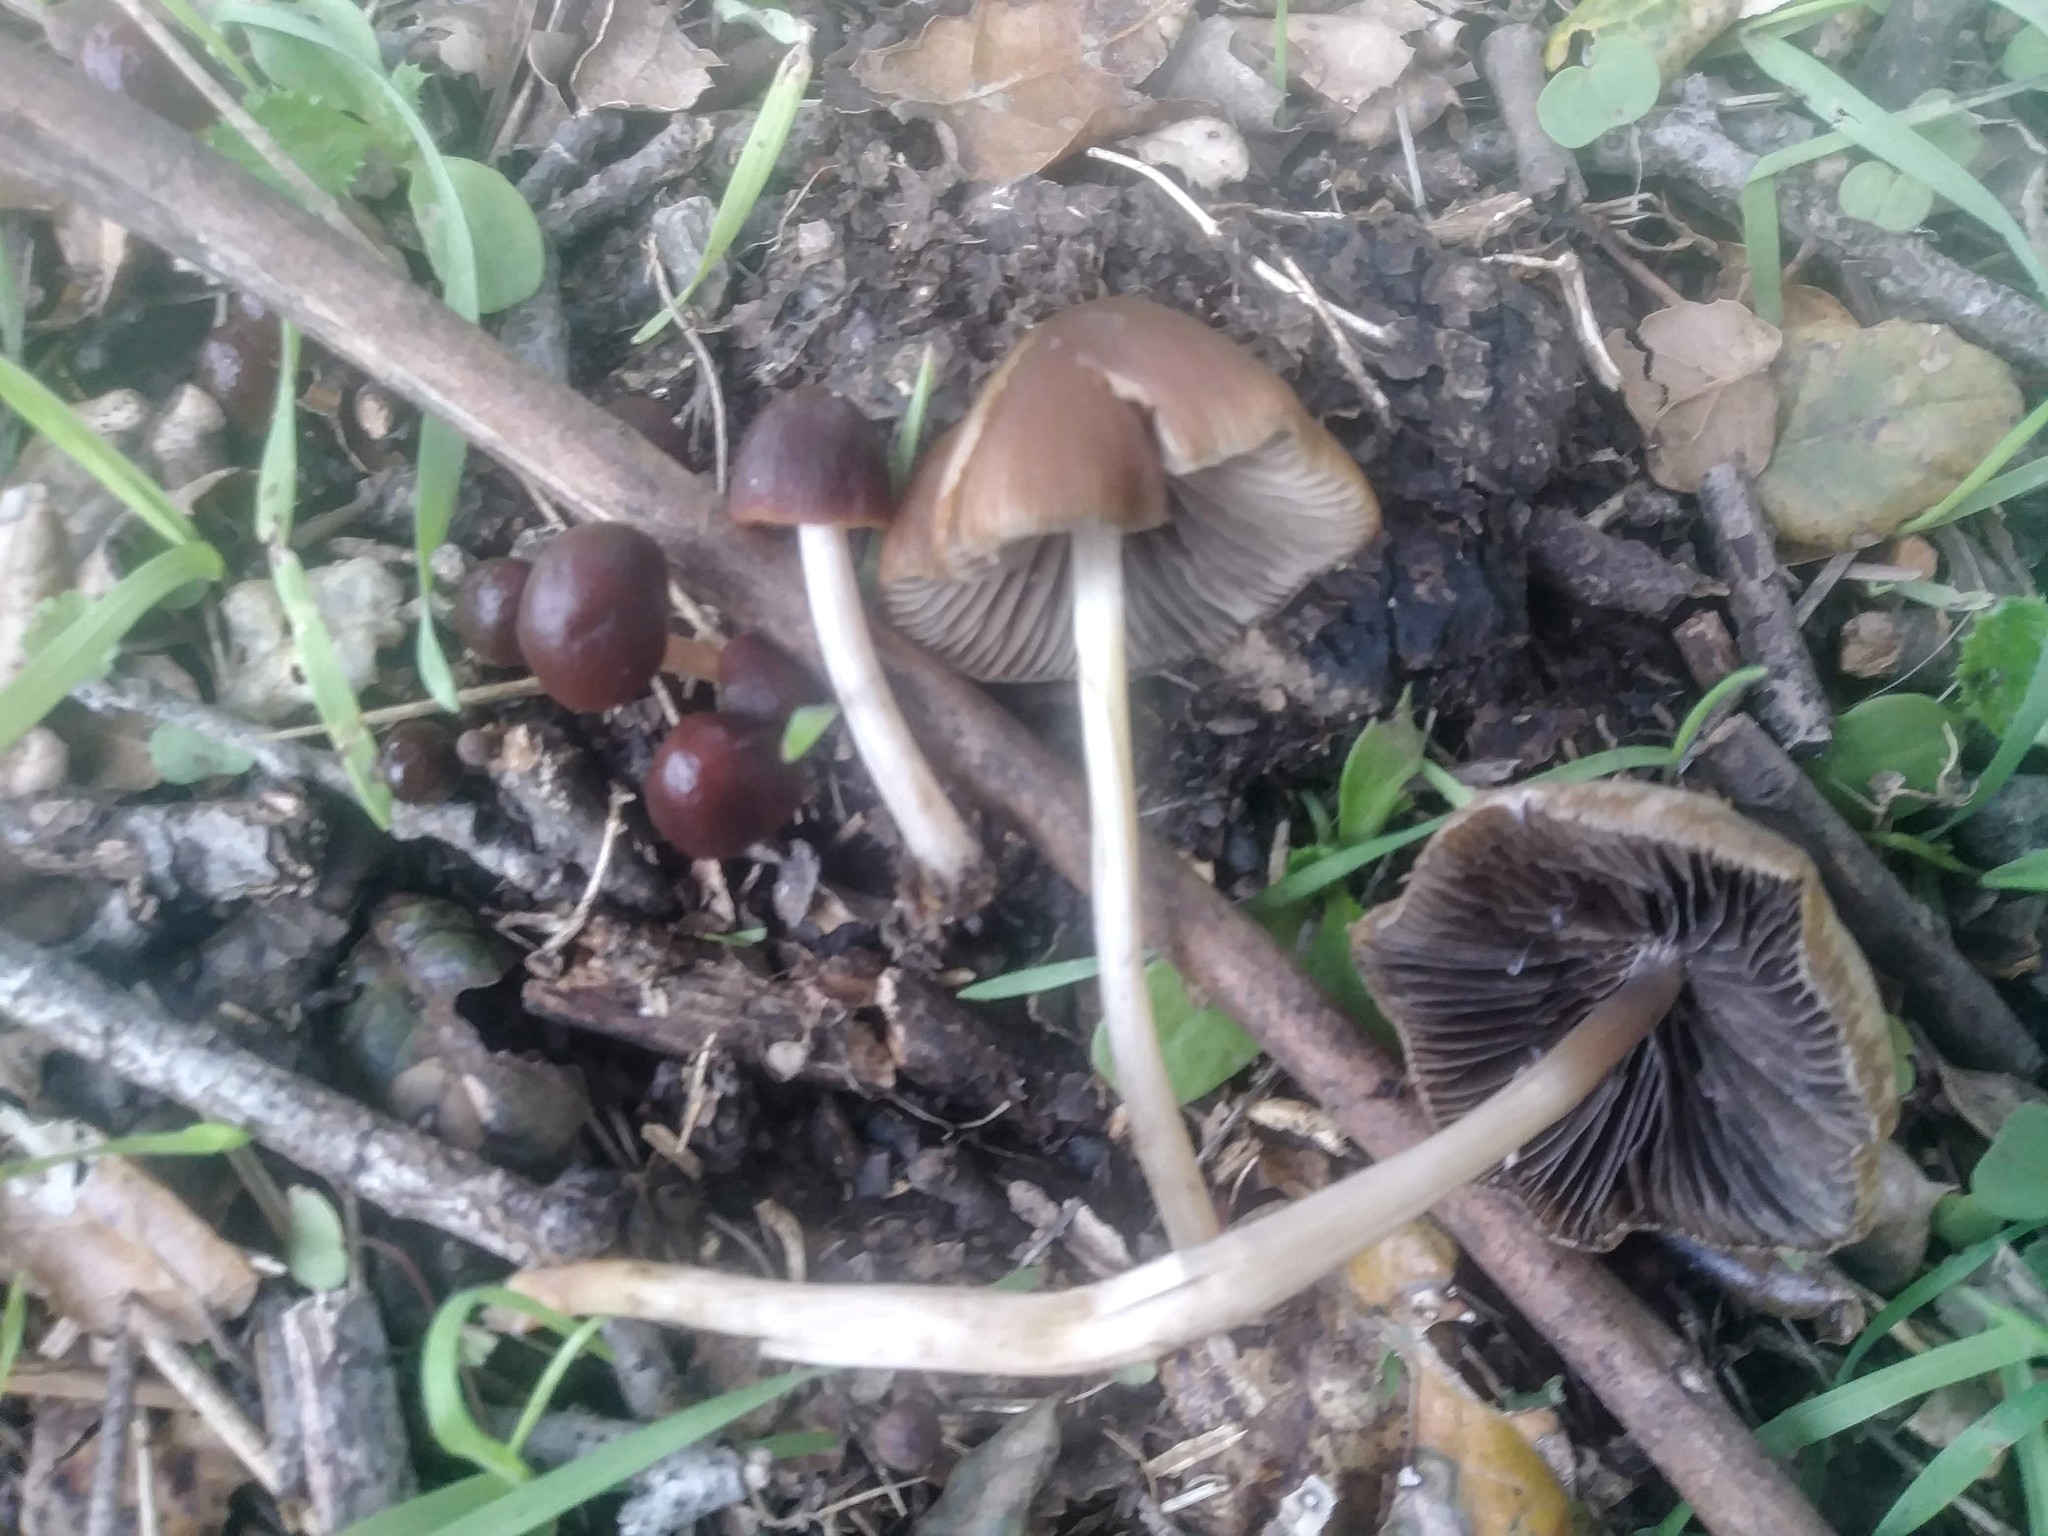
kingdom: Fungi
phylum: Basidiomycota
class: Agaricomycetes
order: Agaricales
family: Psathyrellaceae
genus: Parasola
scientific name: Parasola conopilea
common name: Conical brittlestem
